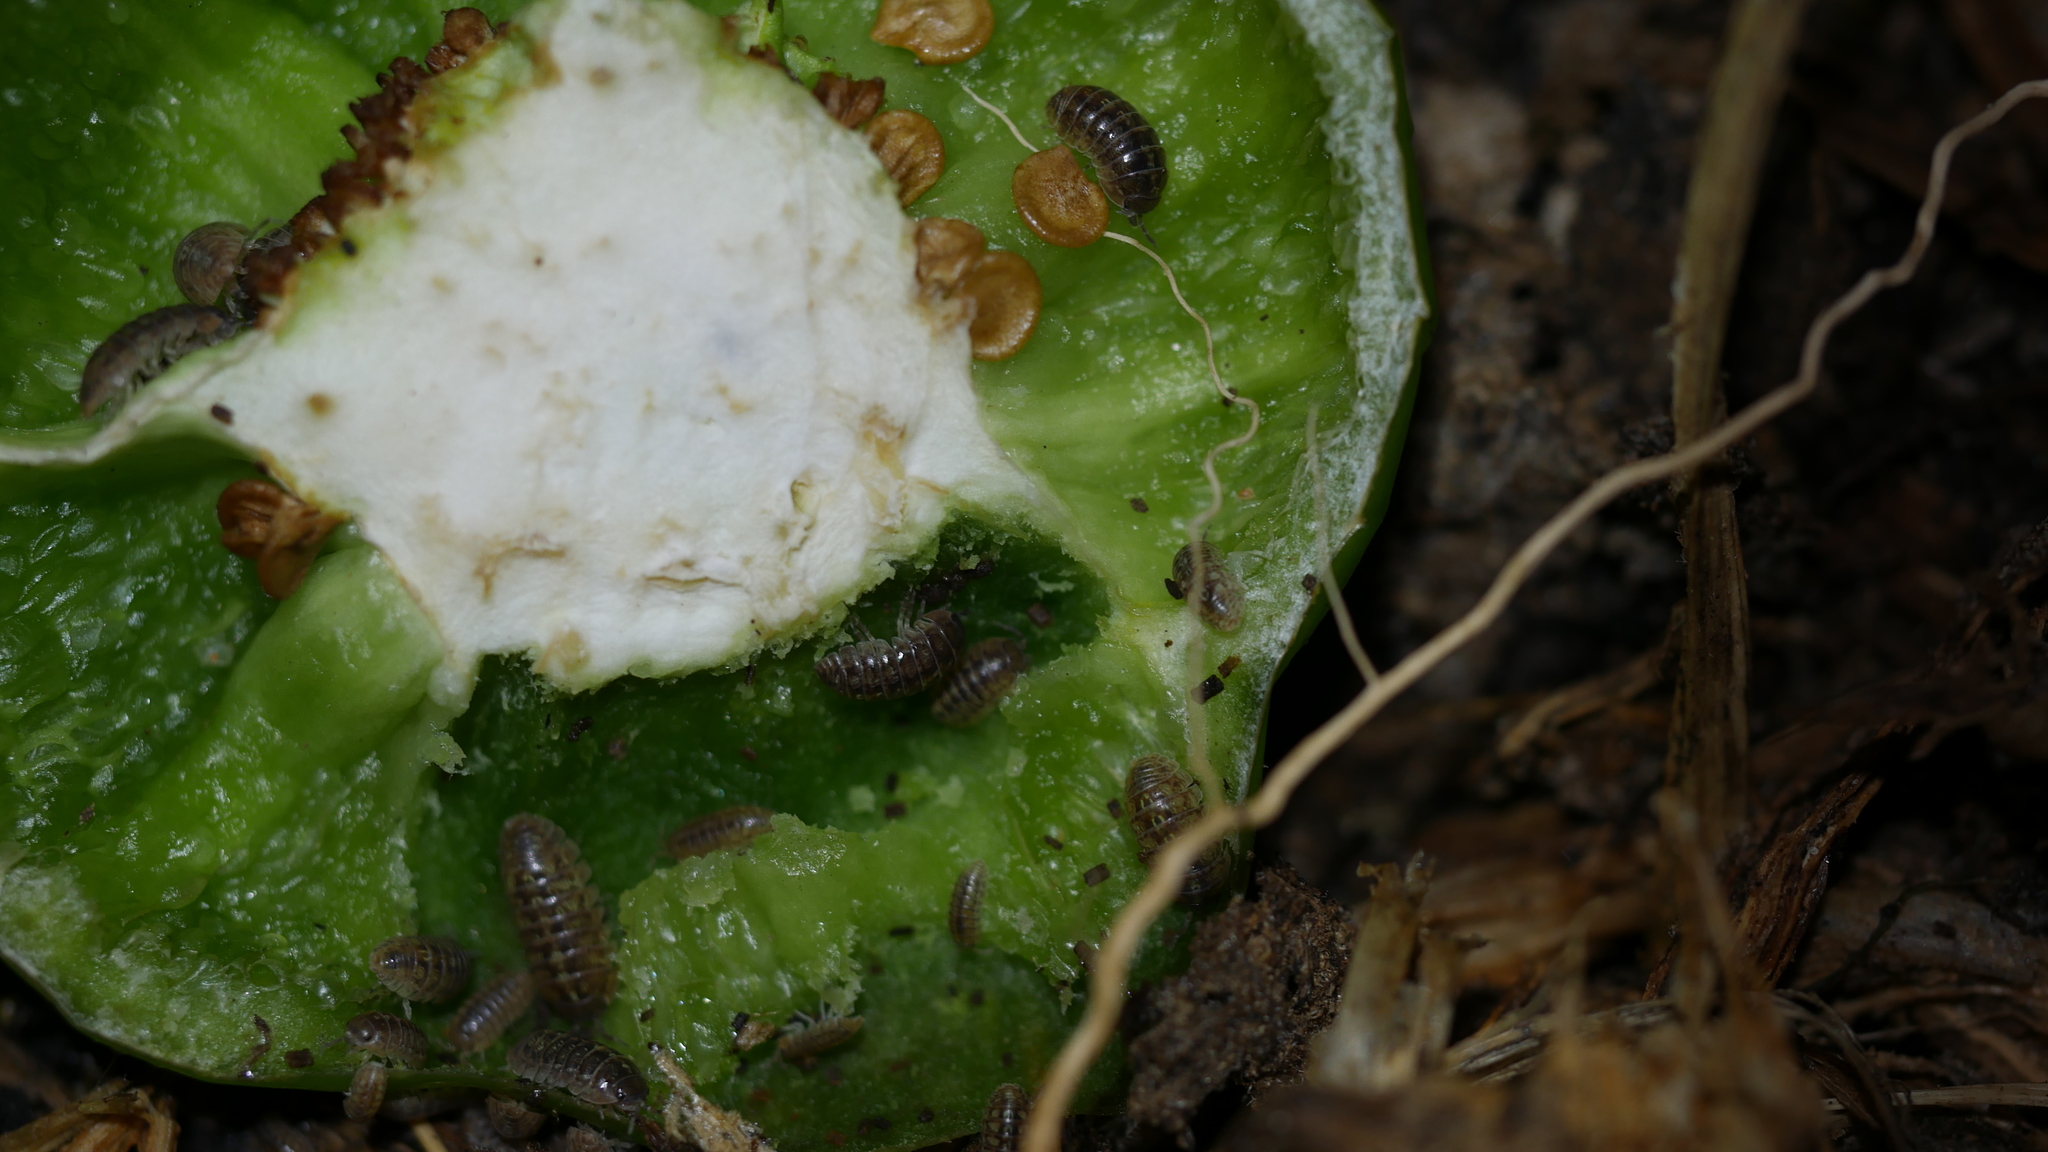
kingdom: Animalia
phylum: Arthropoda
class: Malacostraca
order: Isopoda
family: Armadillidiidae
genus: Armadillidium
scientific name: Armadillidium vulgare
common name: Common pill woodlouse
